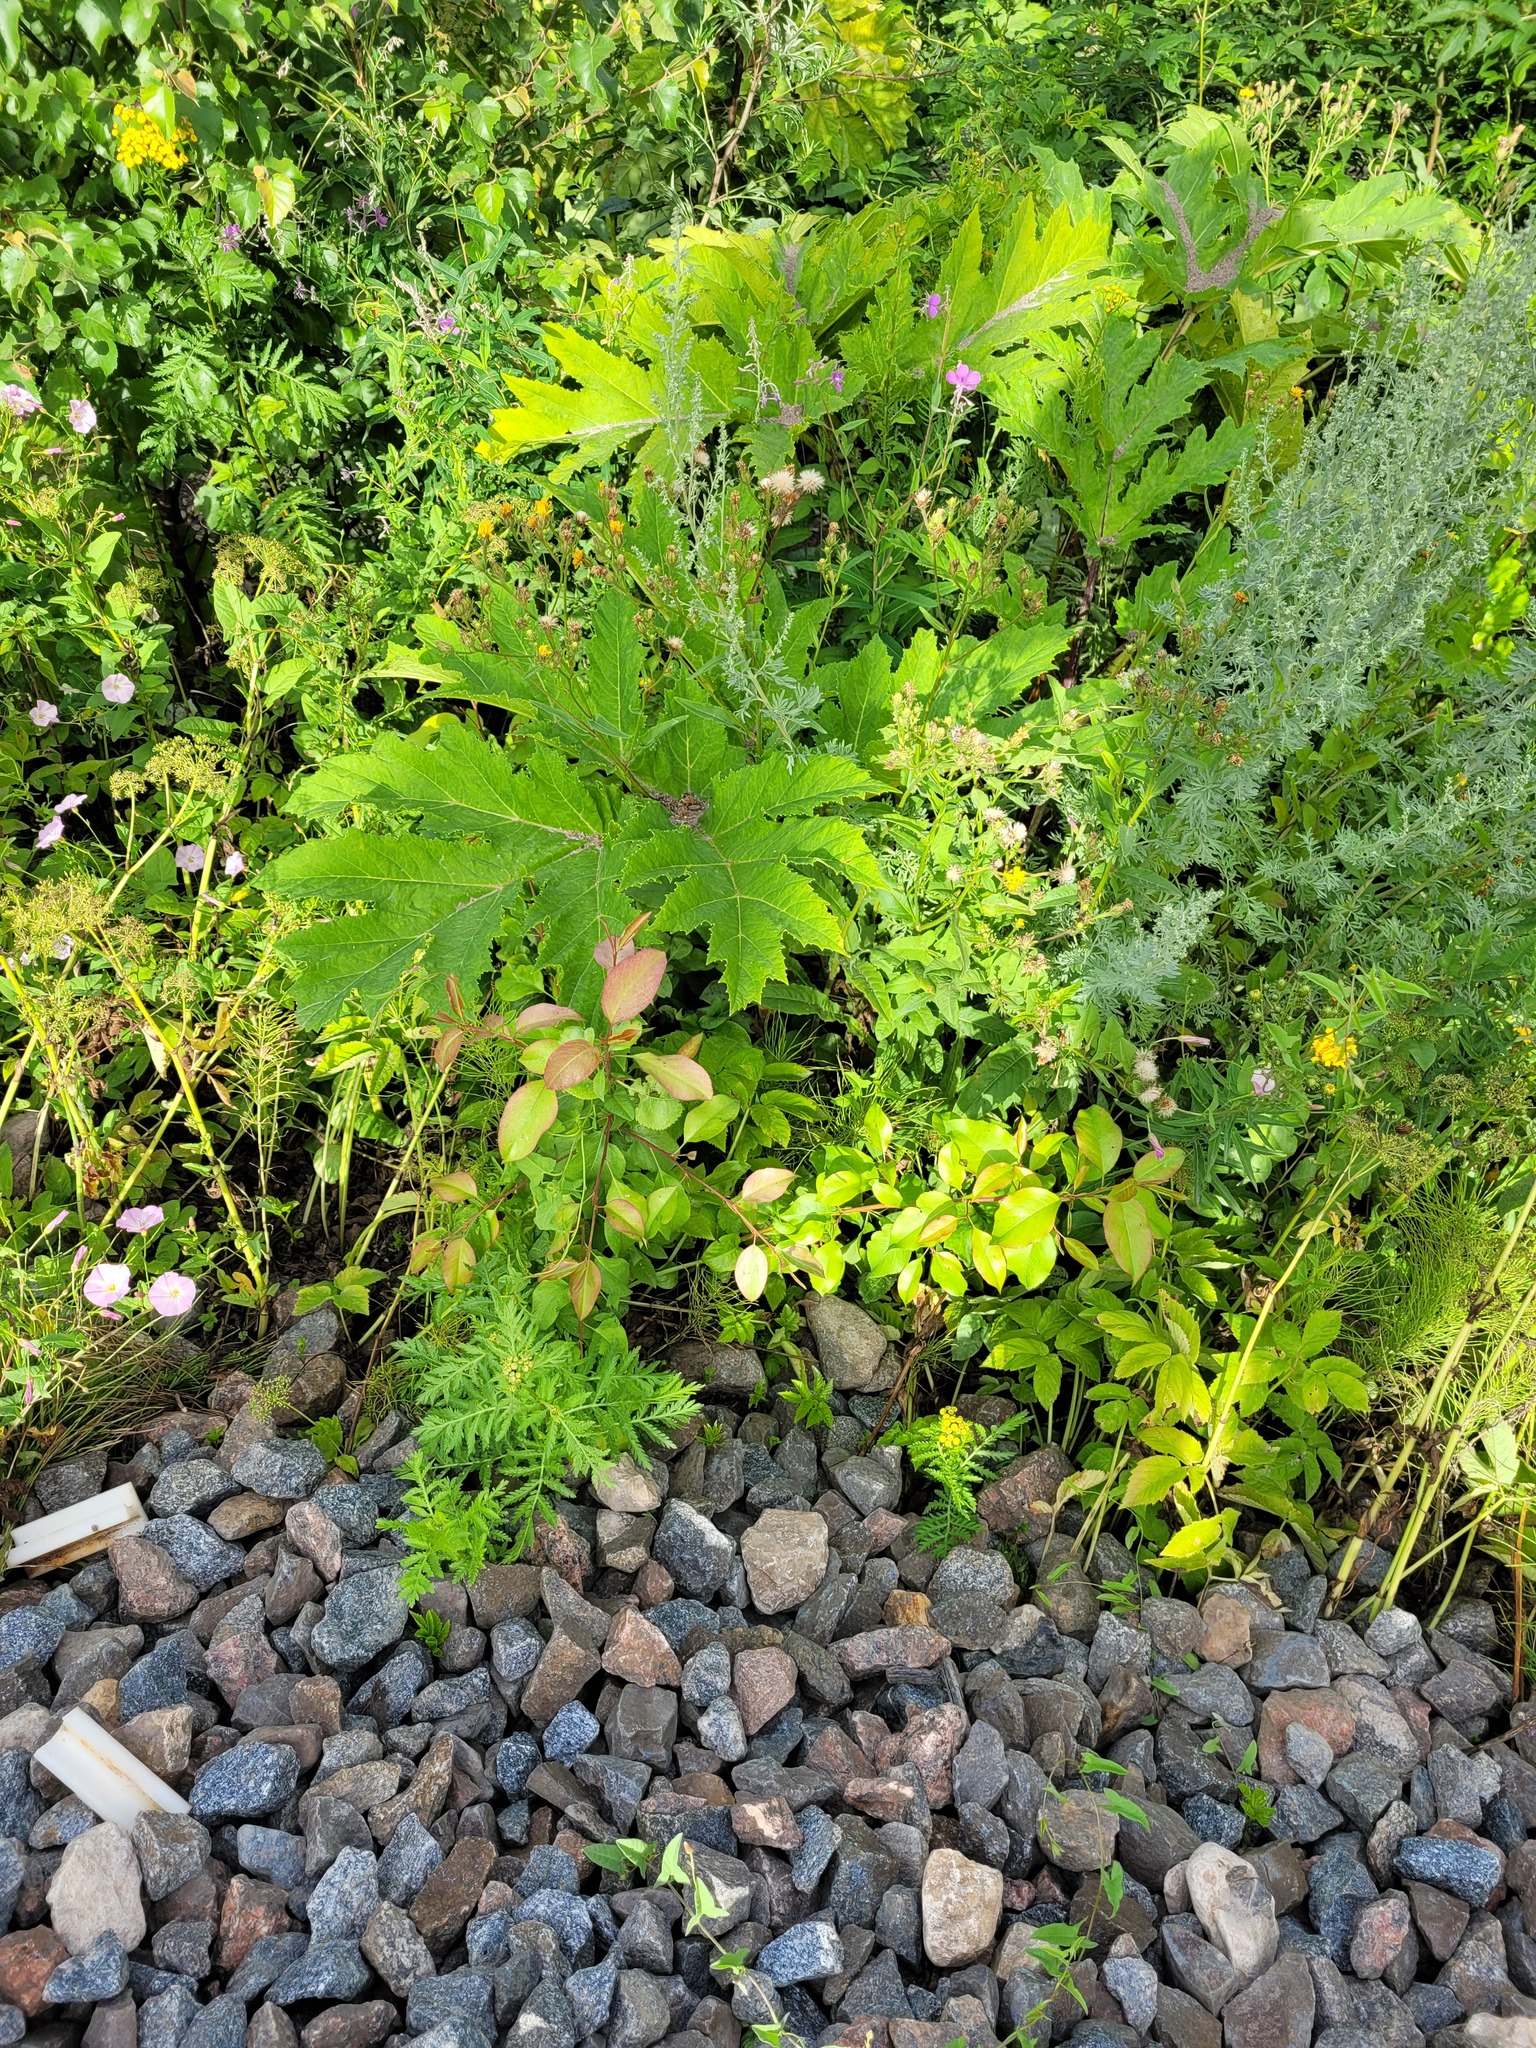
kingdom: Plantae
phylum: Tracheophyta
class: Magnoliopsida
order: Rosales
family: Rosaceae
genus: Pyrus
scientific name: Pyrus communis
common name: Pear
